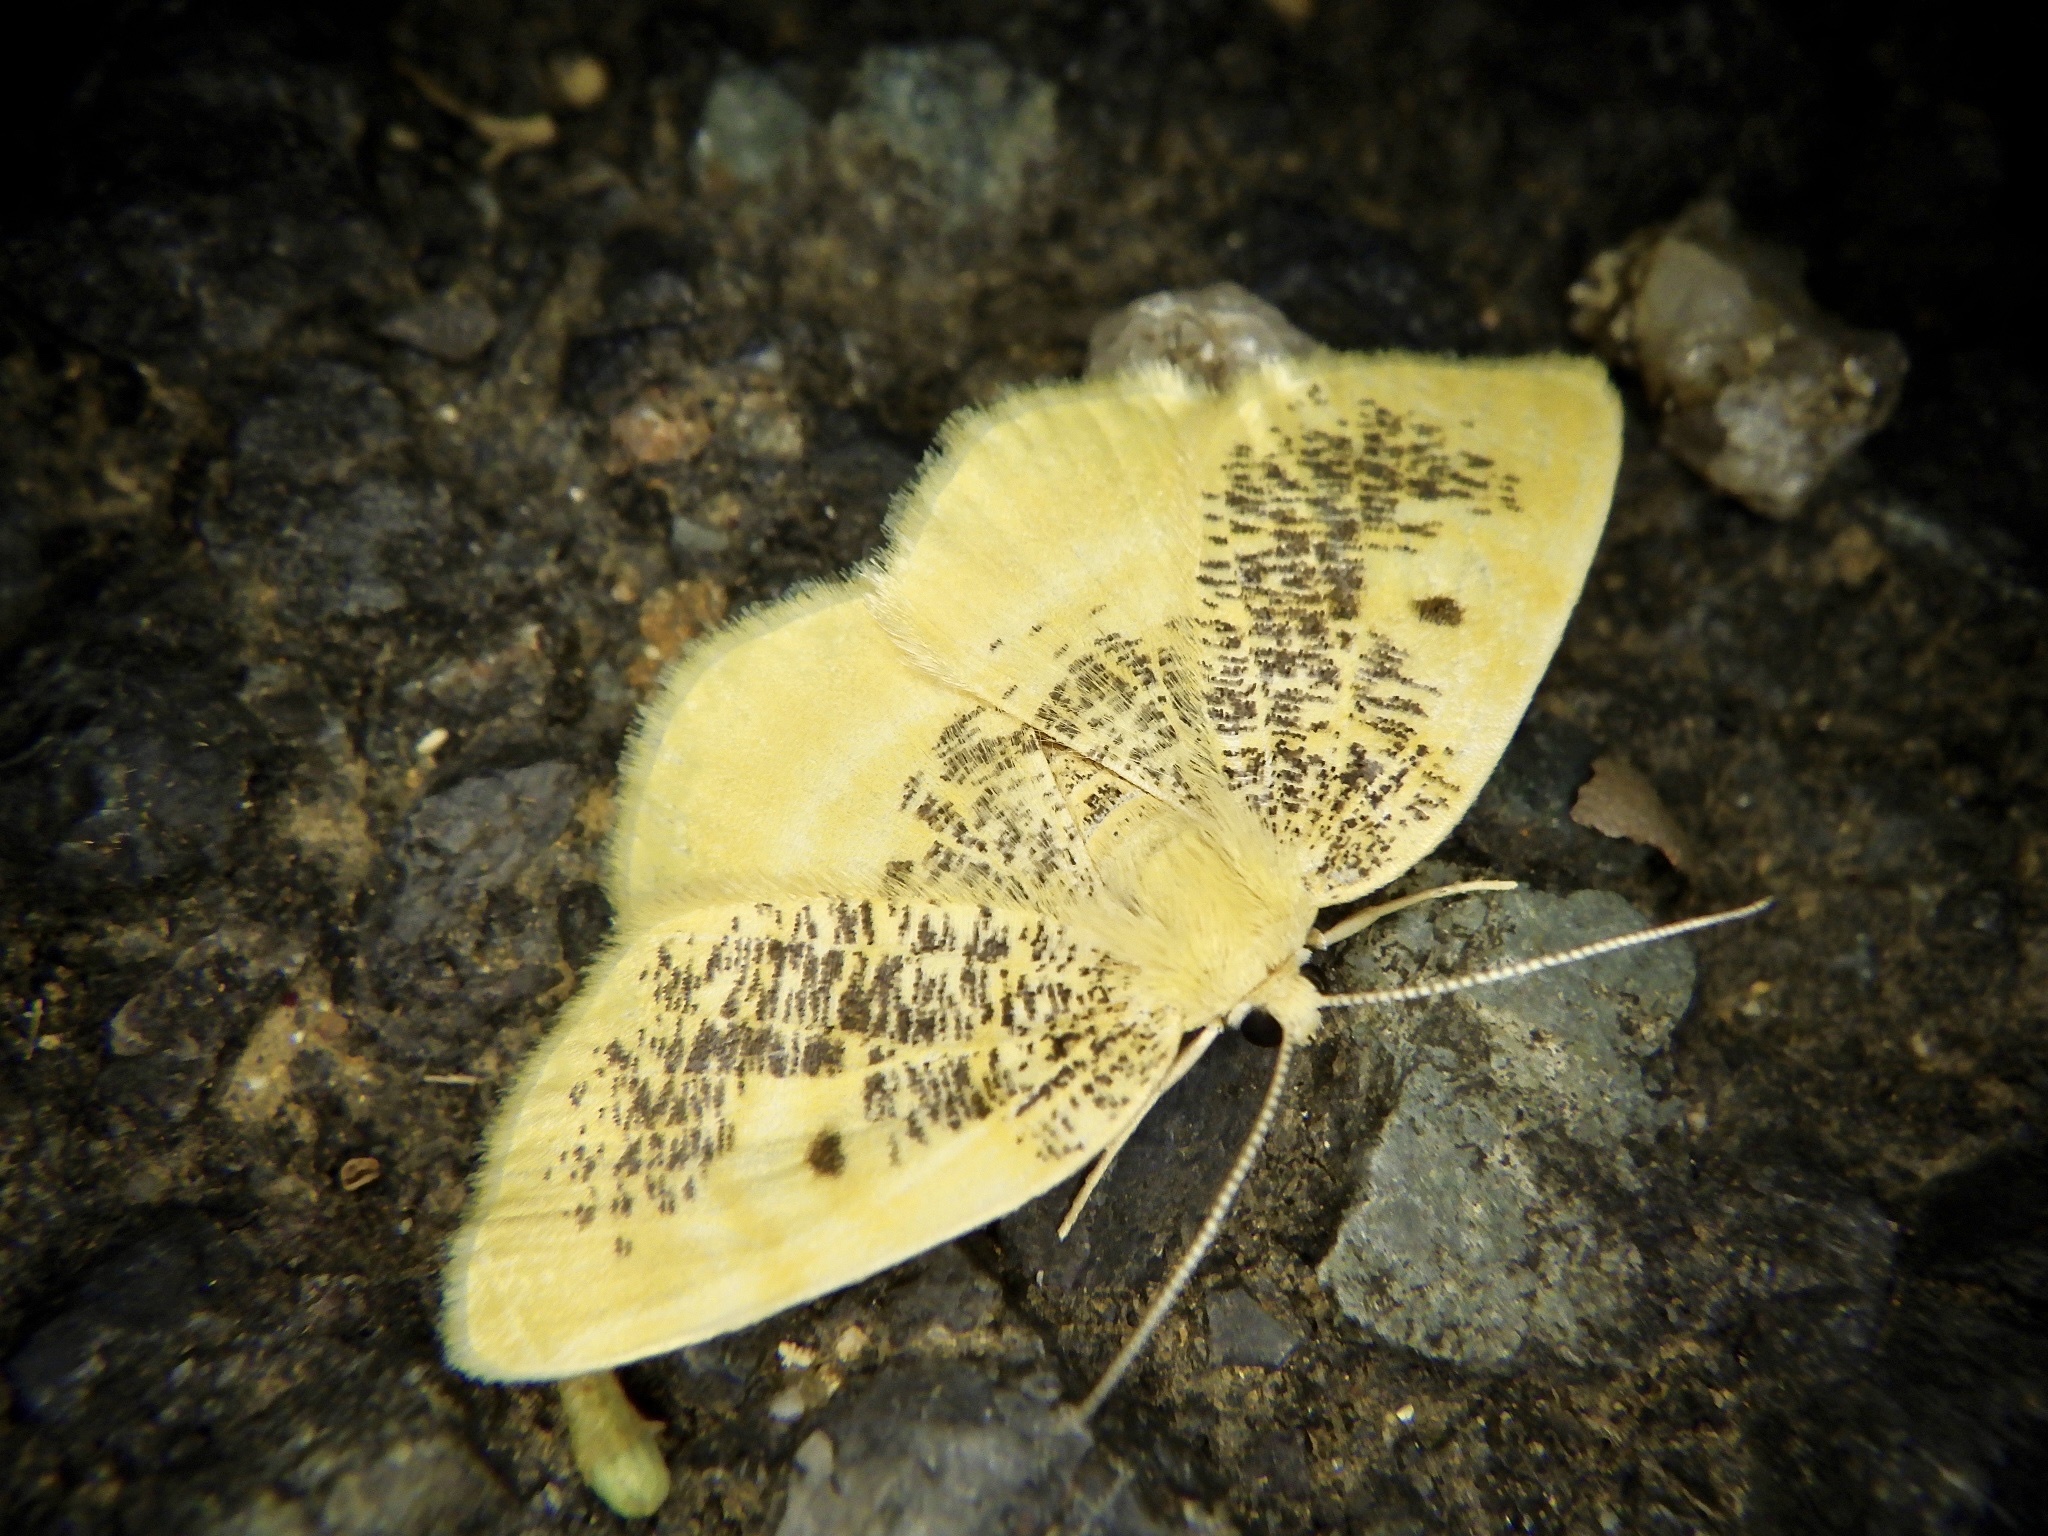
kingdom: Animalia
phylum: Arthropoda
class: Insecta
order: Lepidoptera
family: Geometridae
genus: Euchristophia
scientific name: Euchristophia cumulata
